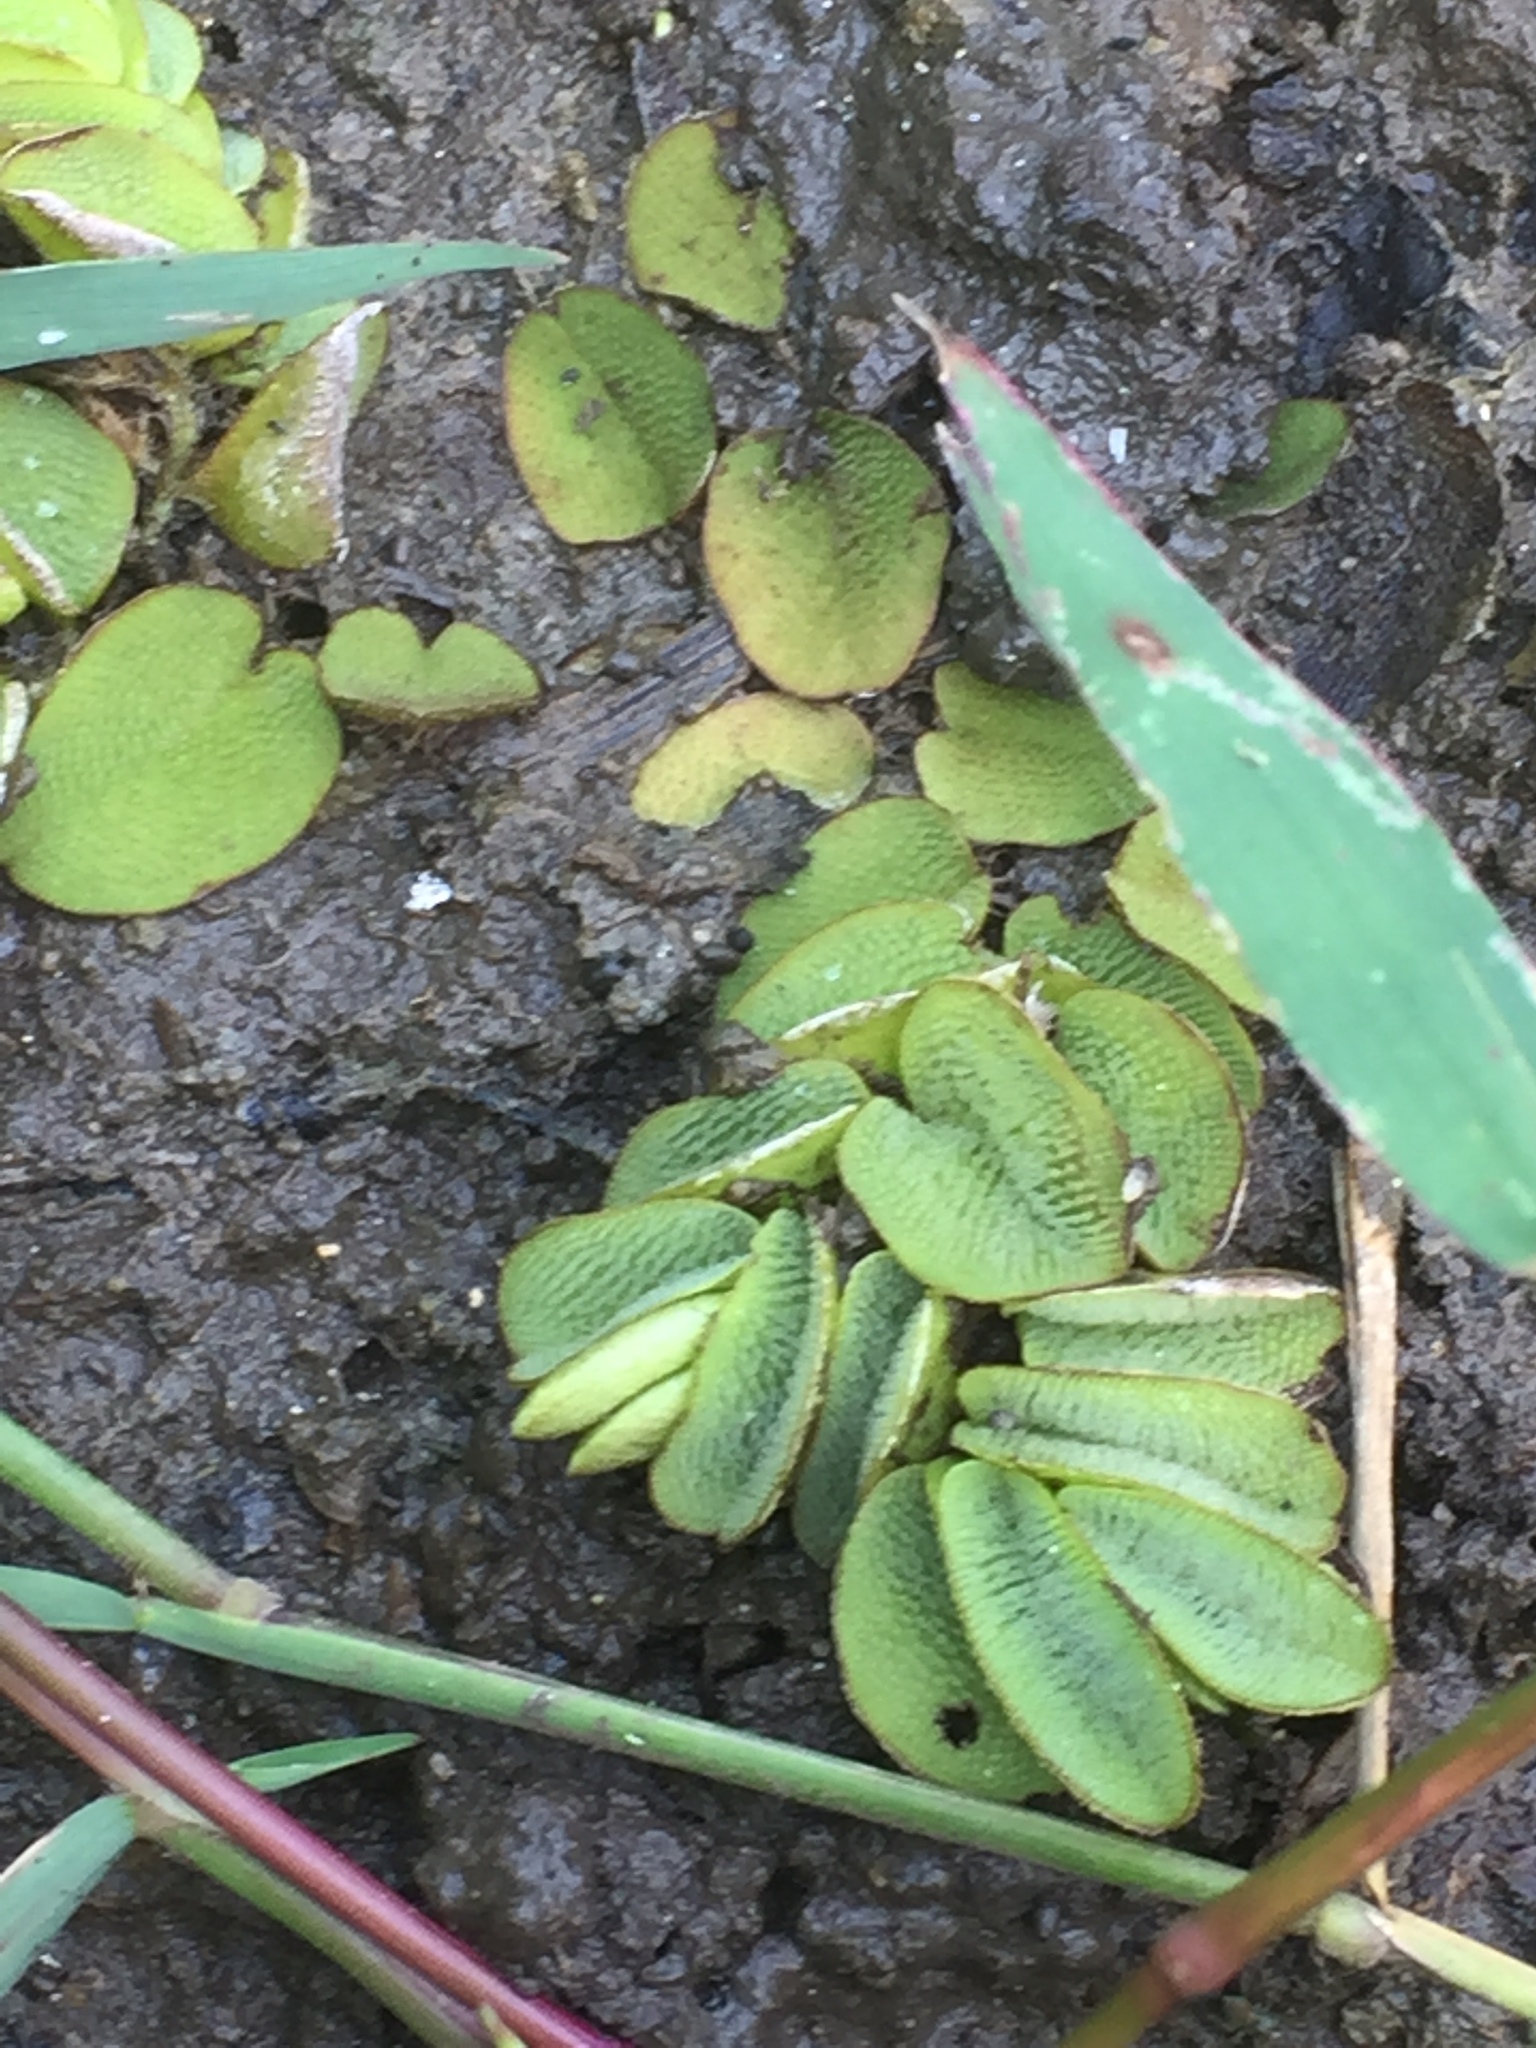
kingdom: Plantae
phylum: Tracheophyta
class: Polypodiopsida
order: Salviniales
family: Salviniaceae
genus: Salvinia
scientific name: Salvinia molesta
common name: Kariba weed
